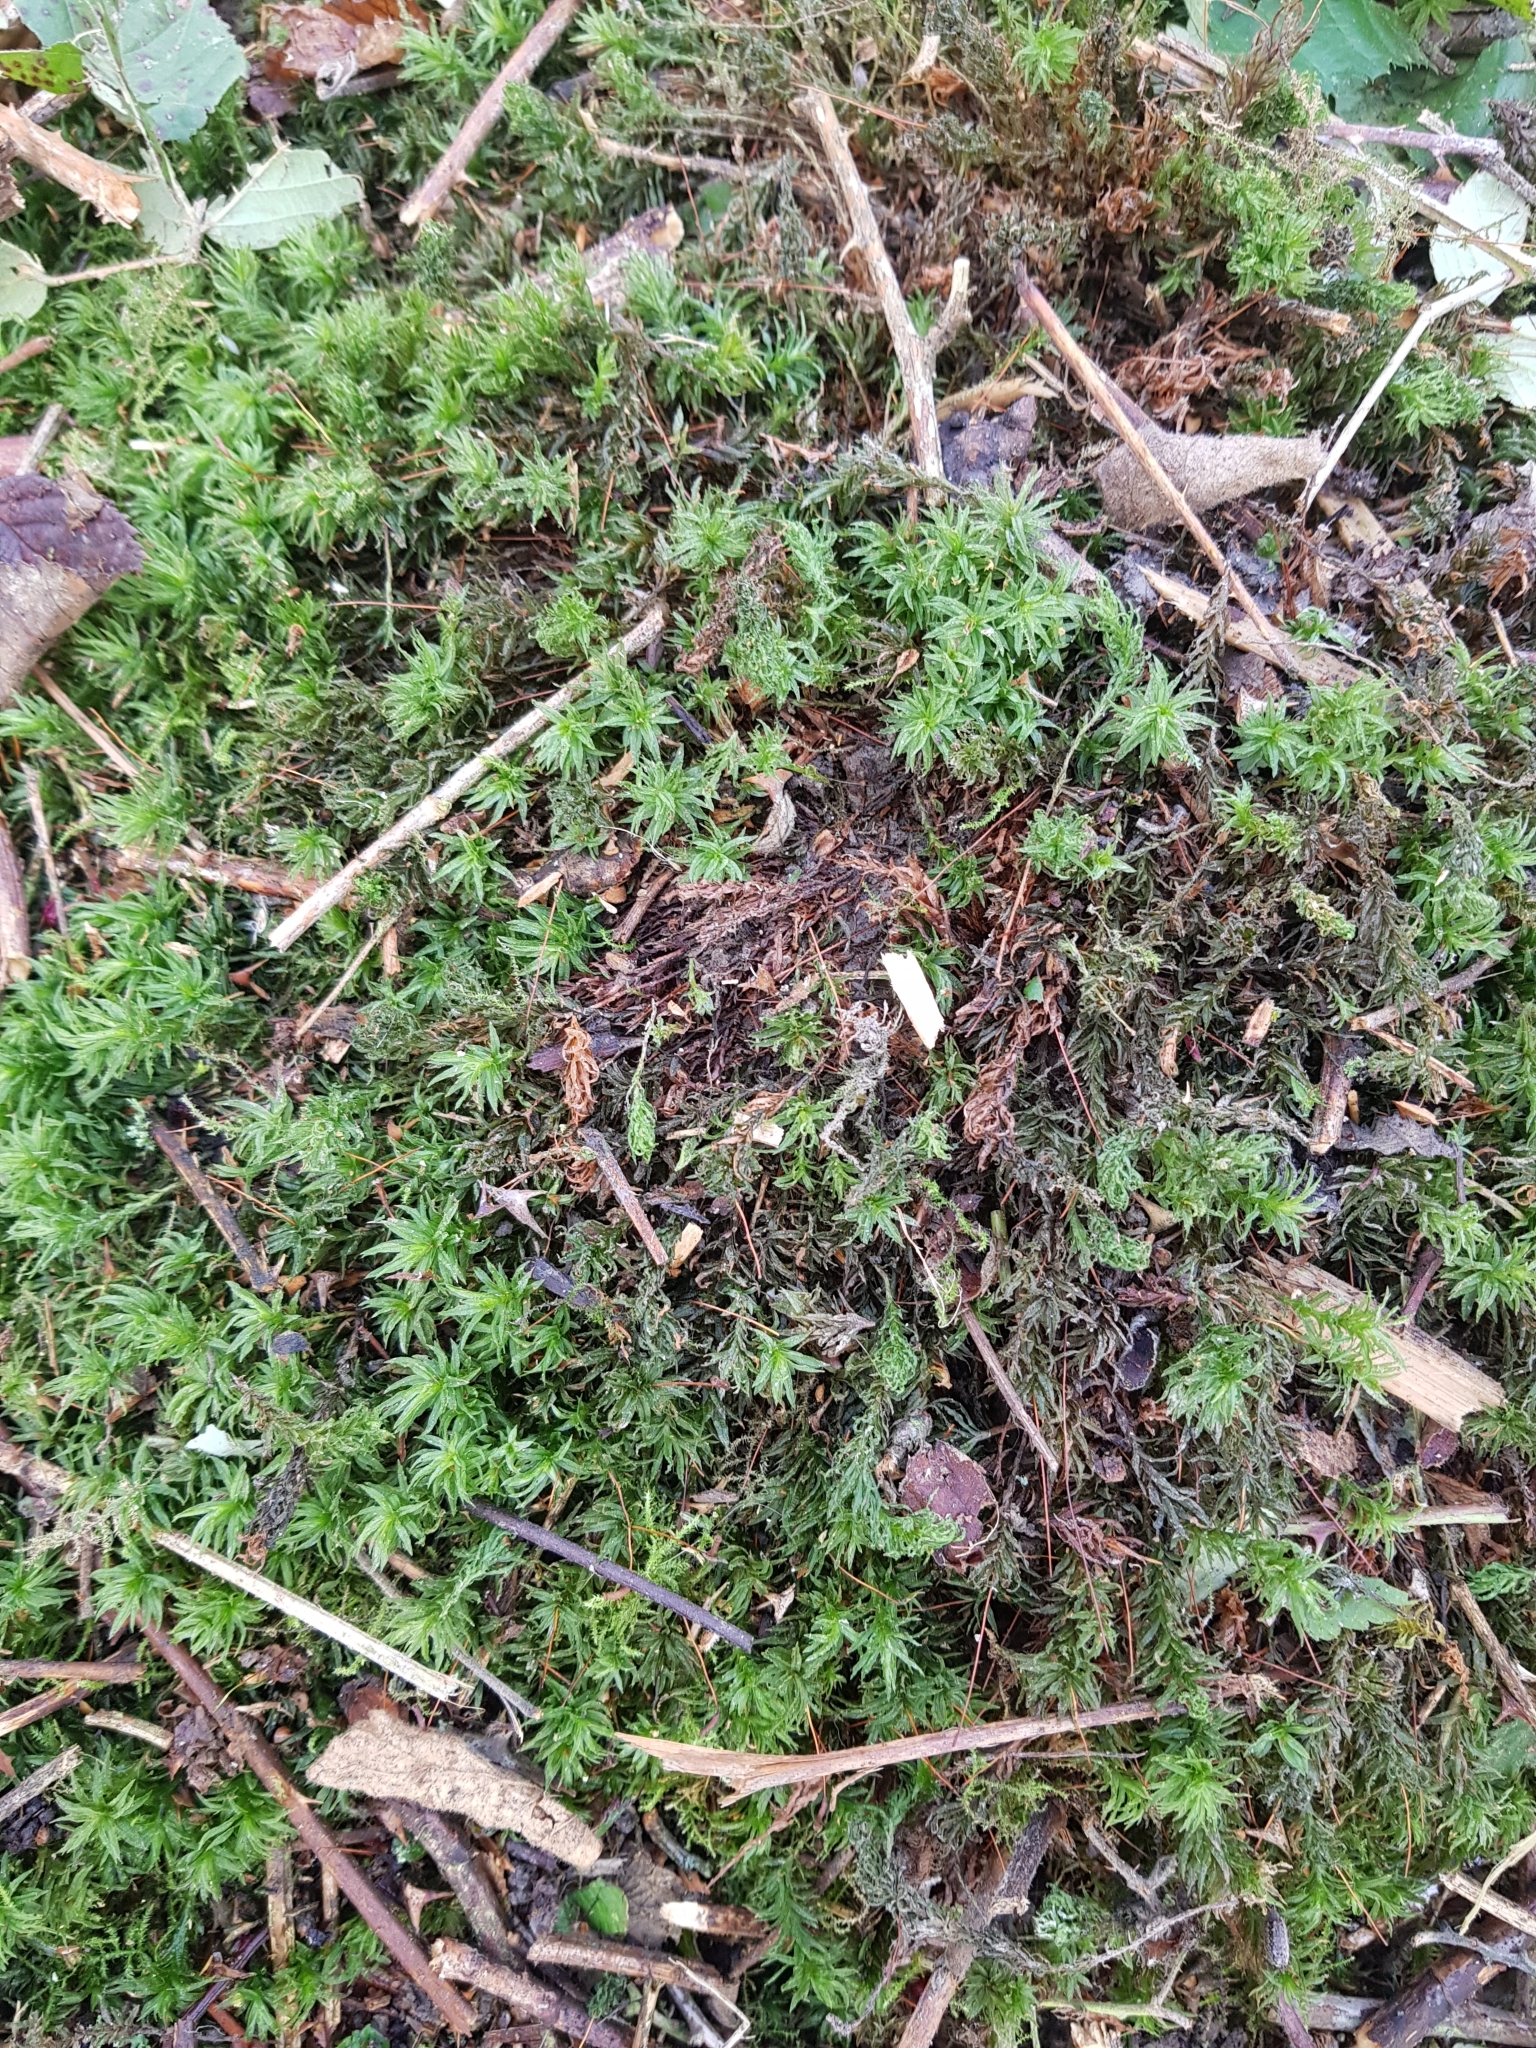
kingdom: Plantae
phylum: Bryophyta
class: Polytrichopsida
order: Polytrichales
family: Polytrichaceae
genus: Atrichum
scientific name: Atrichum undulatum
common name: Common smoothcap
